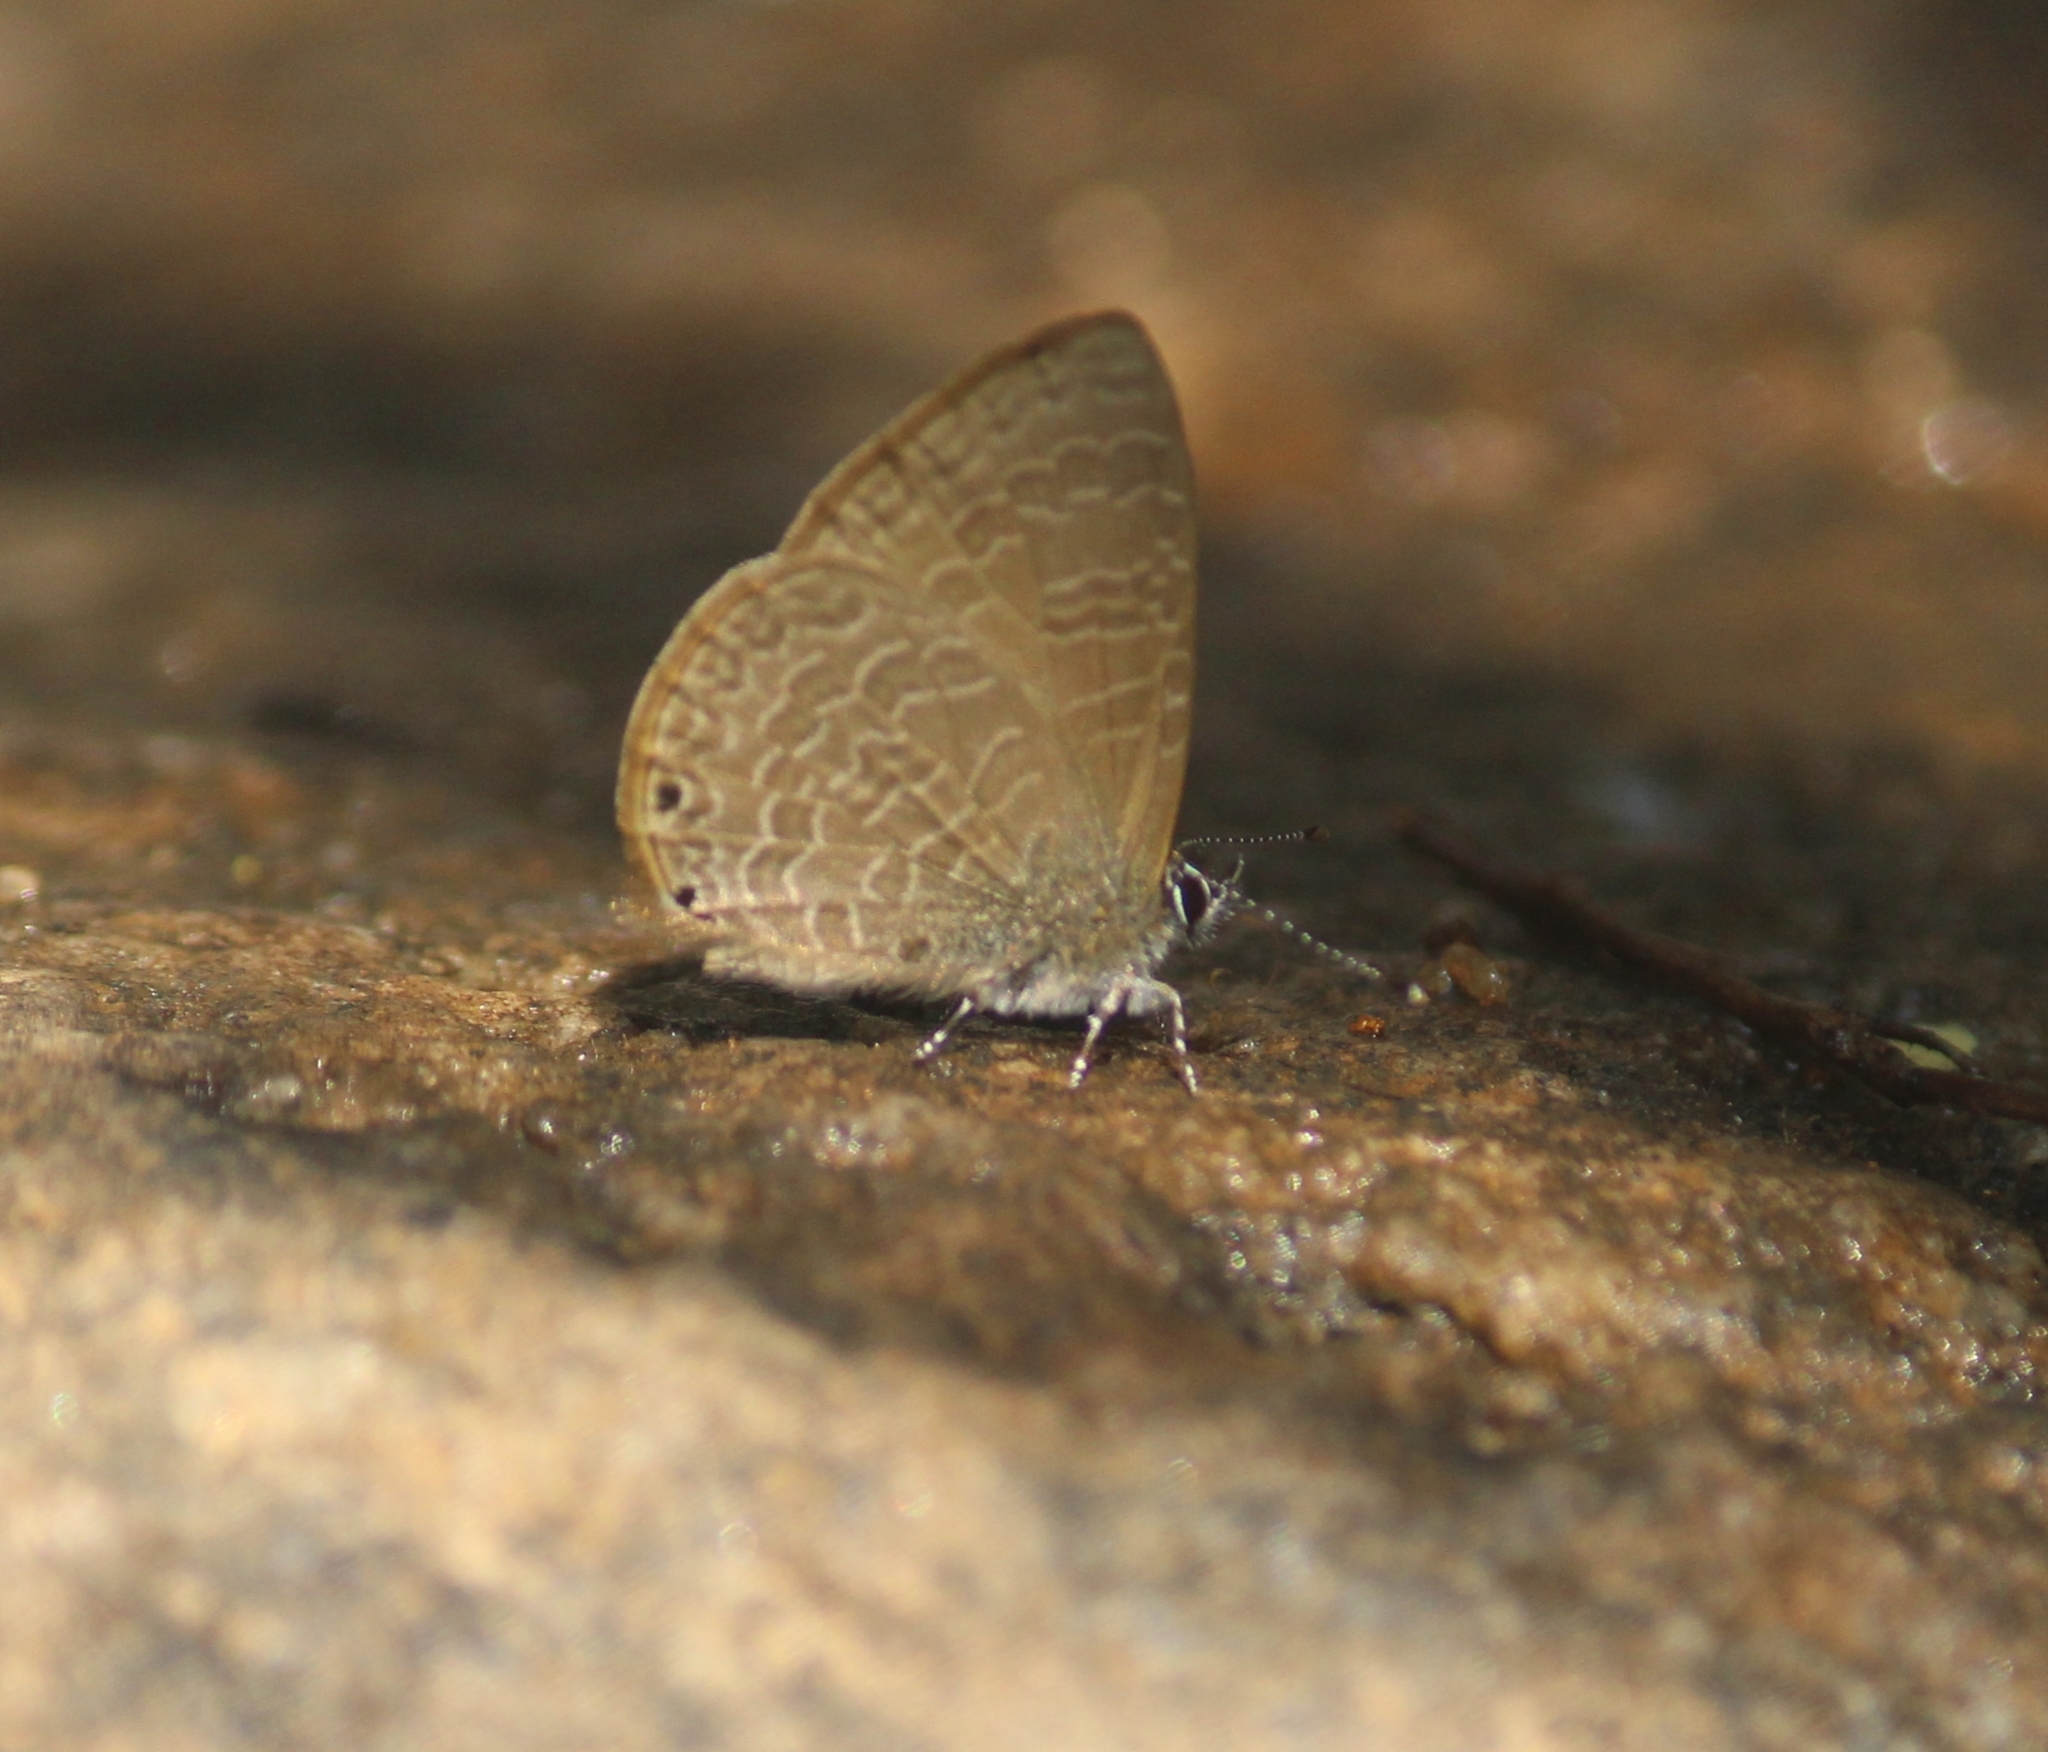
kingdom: Animalia
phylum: Arthropoda
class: Insecta
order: Lepidoptera
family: Lycaenidae
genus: Petrelaea
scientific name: Petrelaea dana
